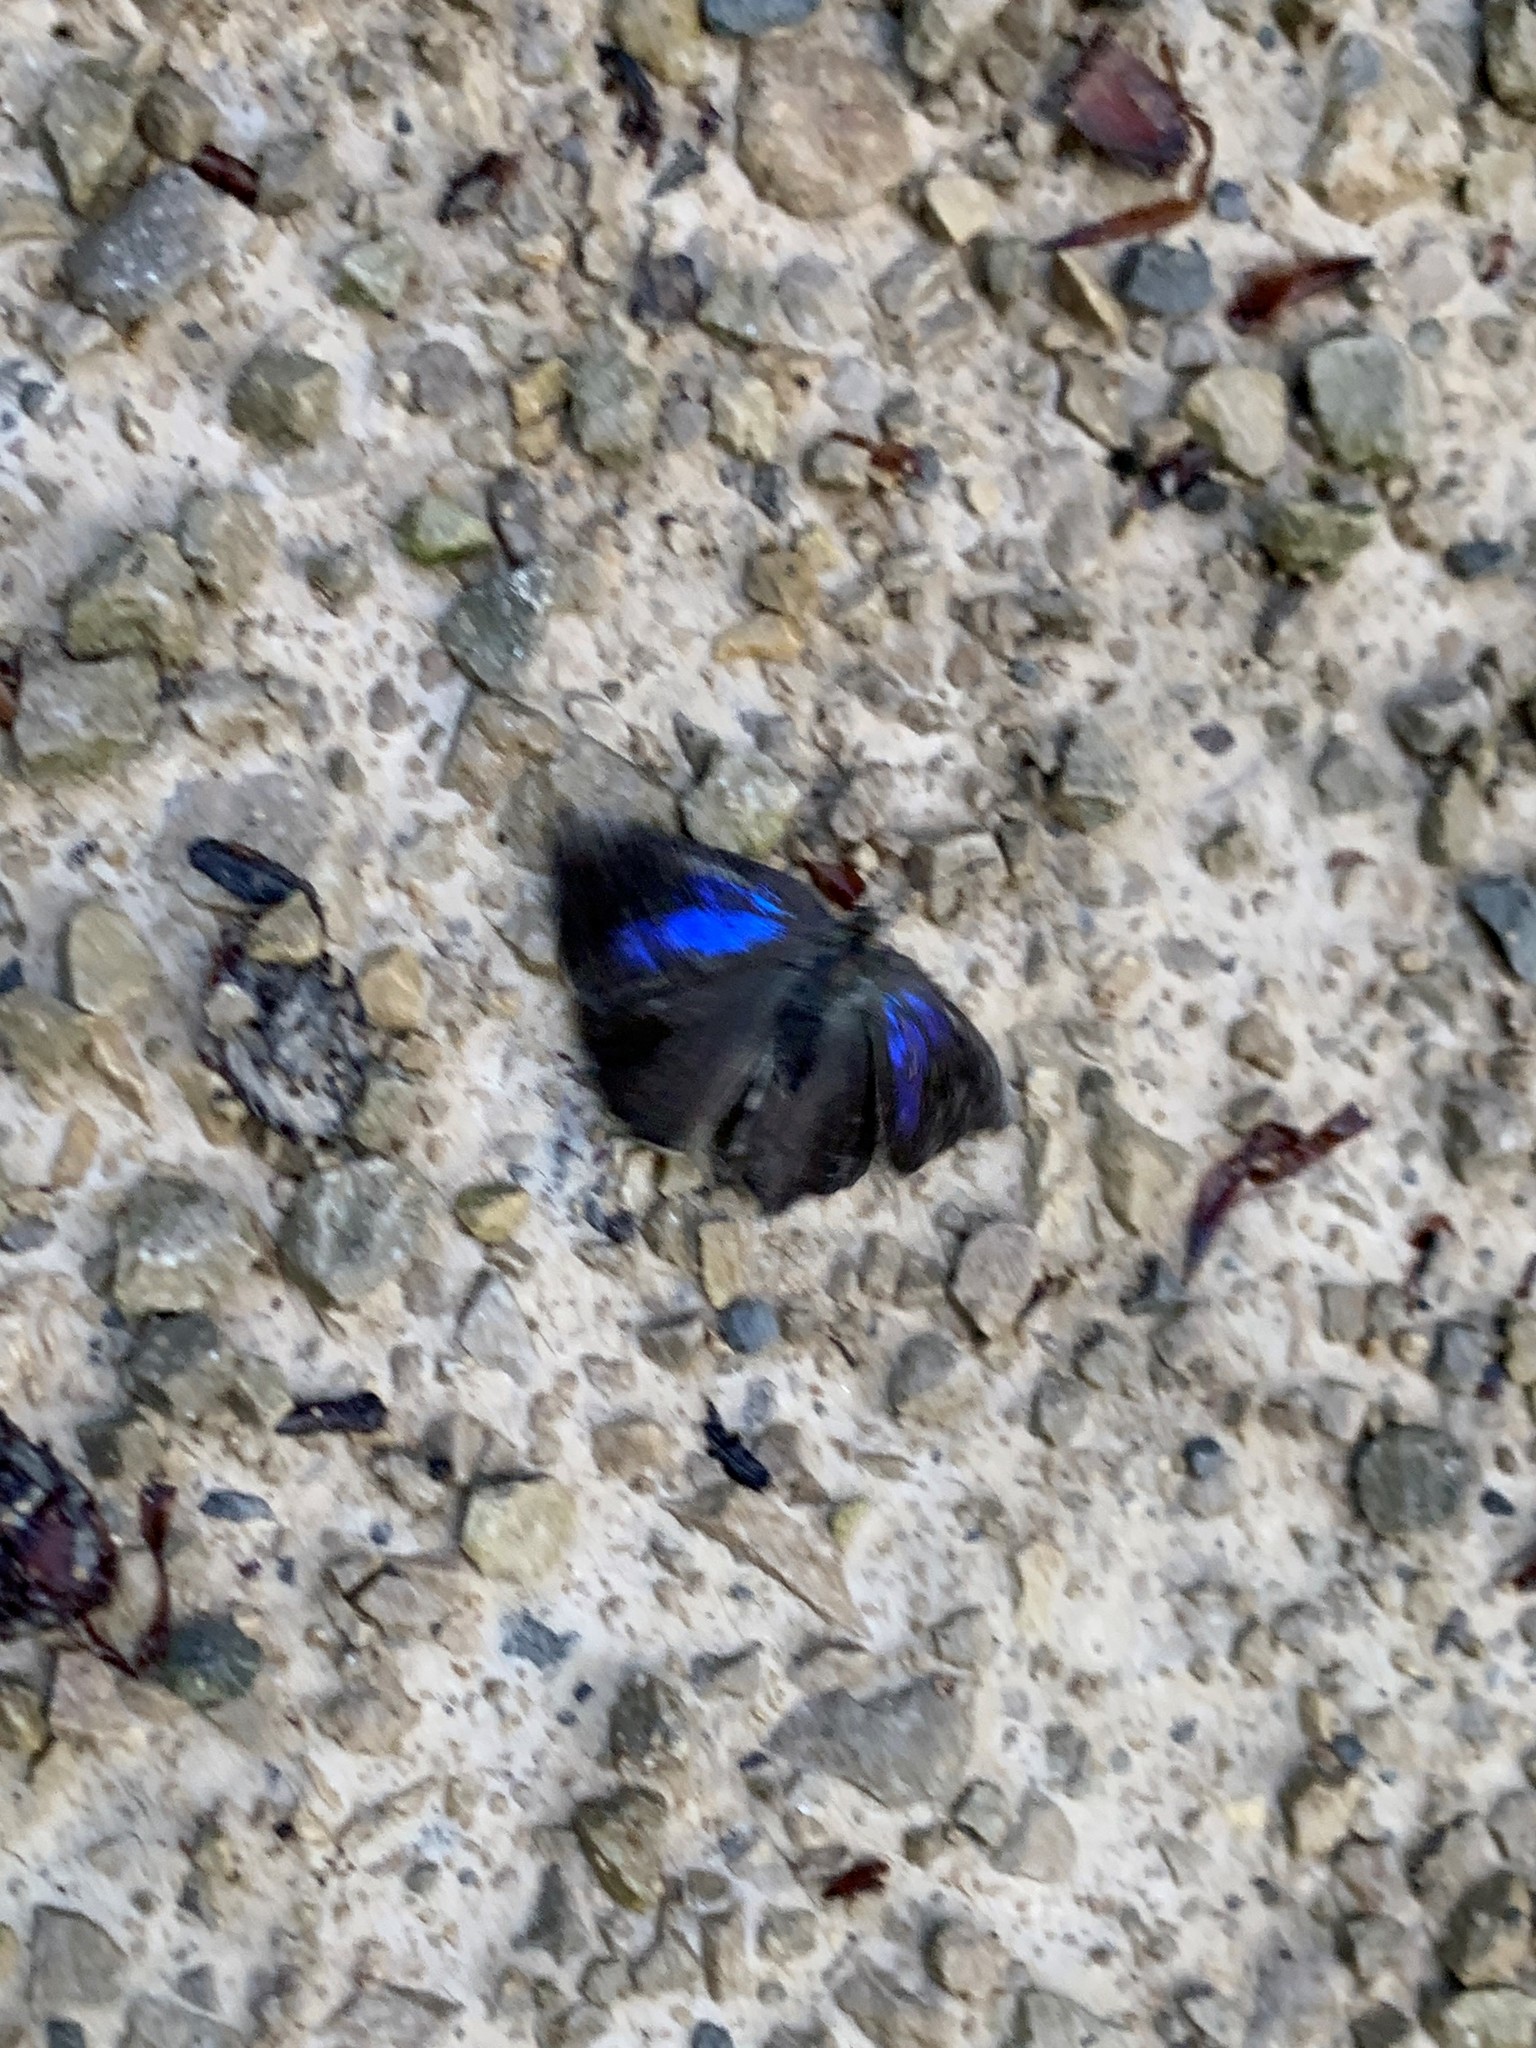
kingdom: Animalia
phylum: Arthropoda
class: Insecta
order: Lepidoptera
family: Lycaenidae
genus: Quercusia
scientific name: Quercusia quercus
